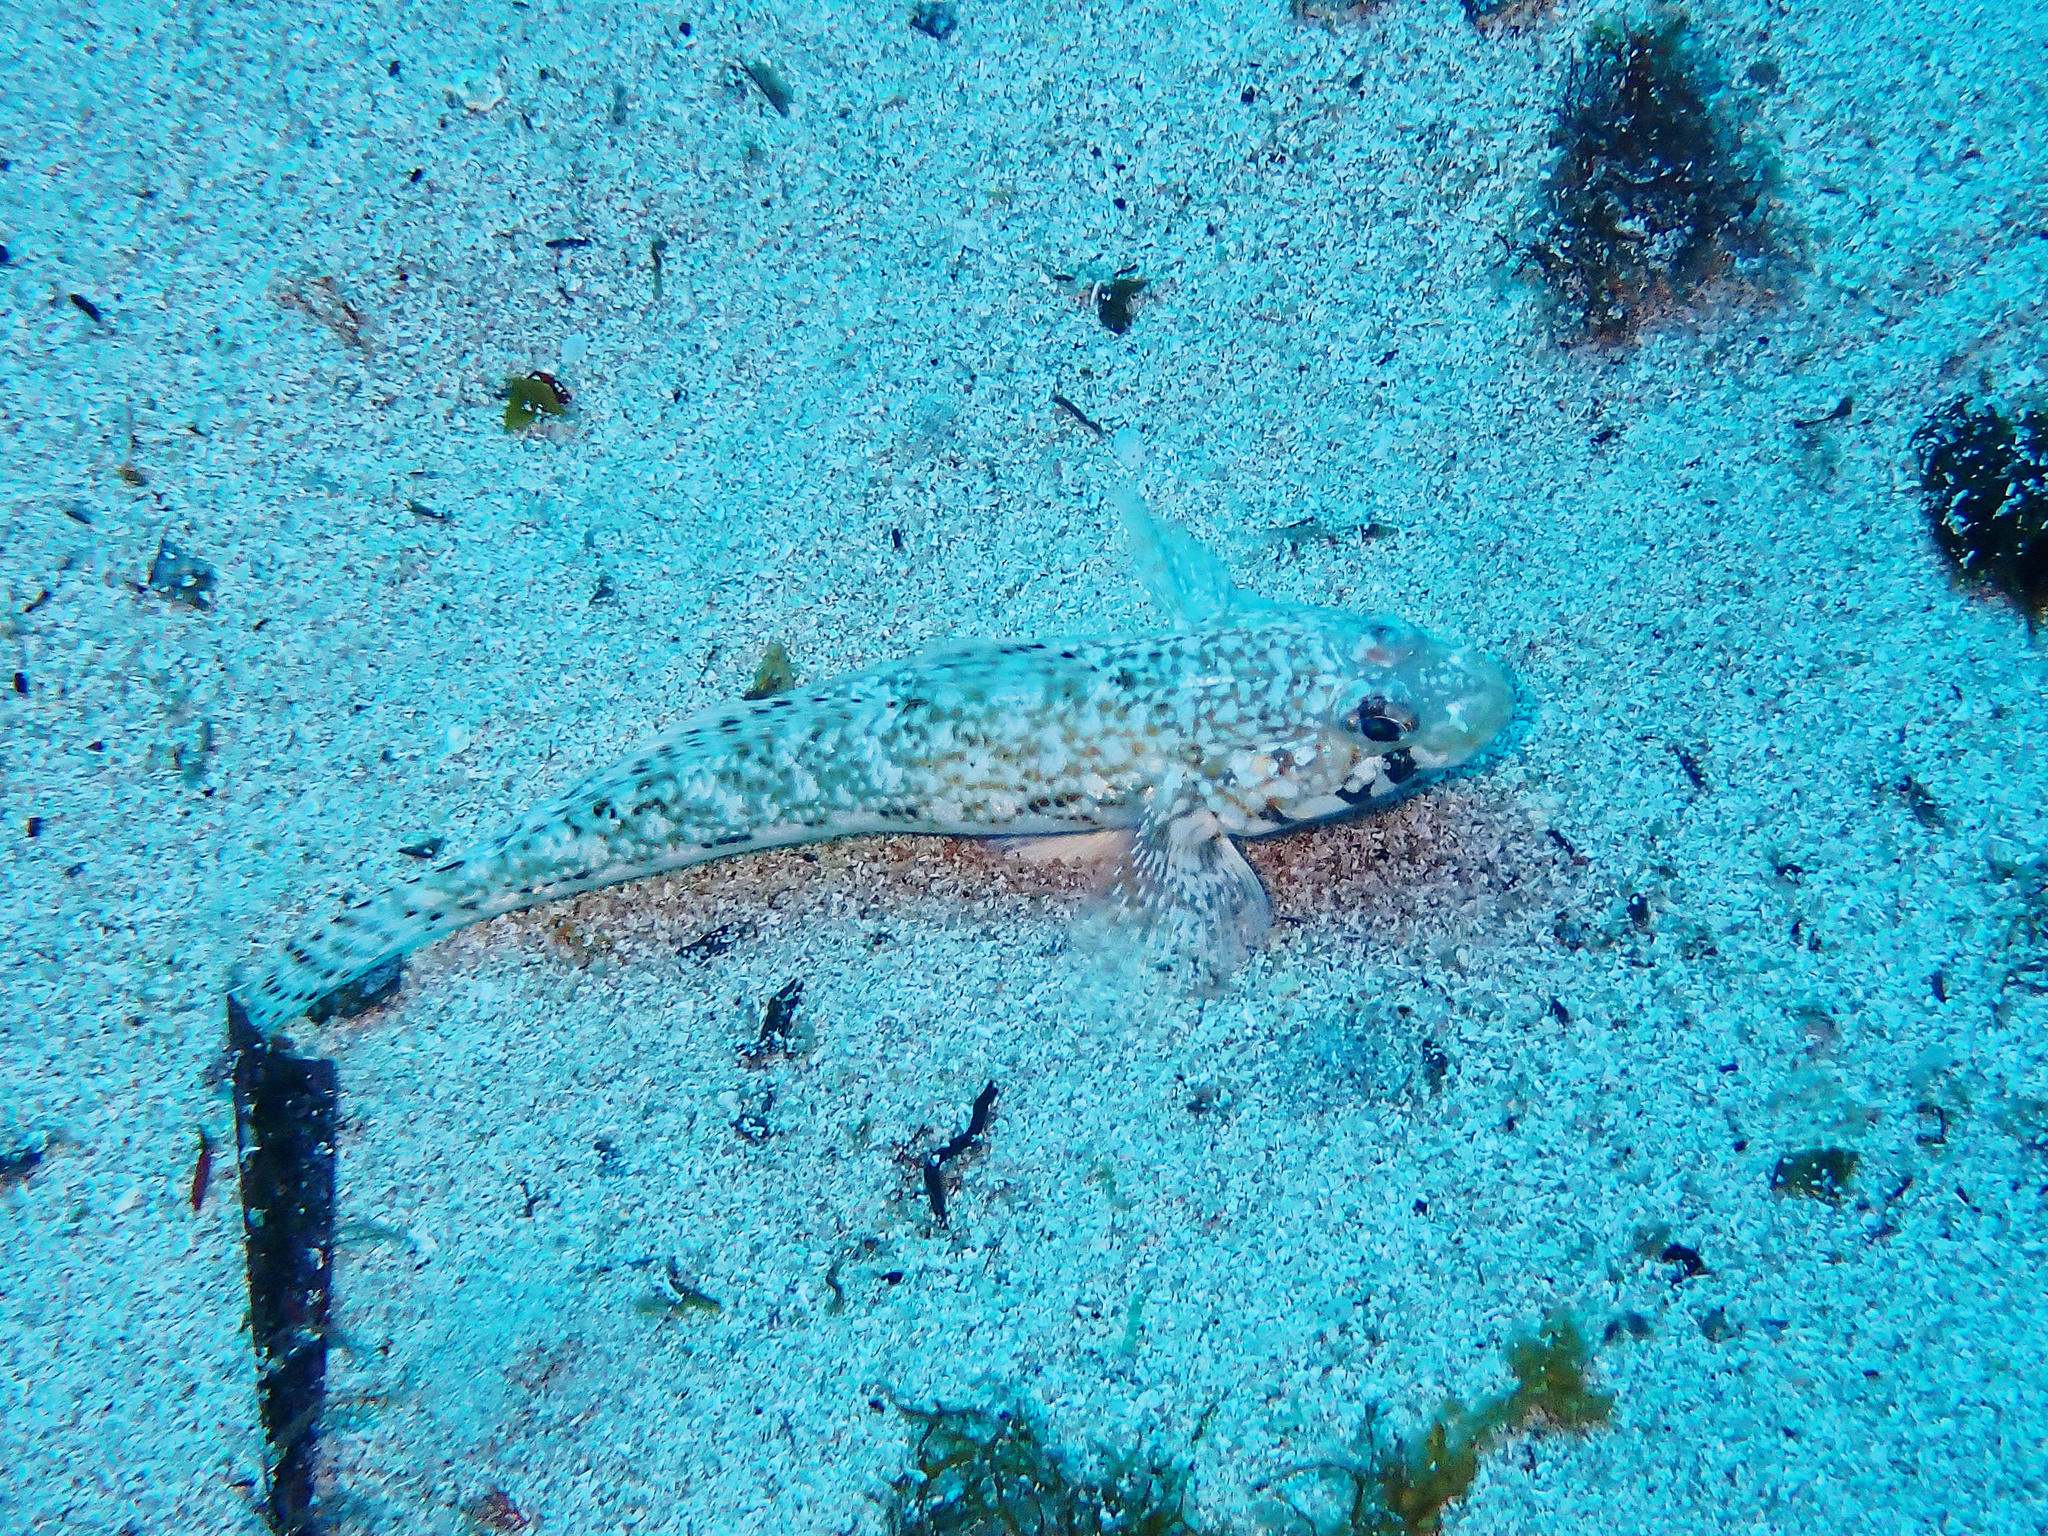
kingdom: Animalia
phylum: Chordata
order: Perciformes
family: Gobiidae
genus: Gobius
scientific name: Gobius geniporus
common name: Slender goby
